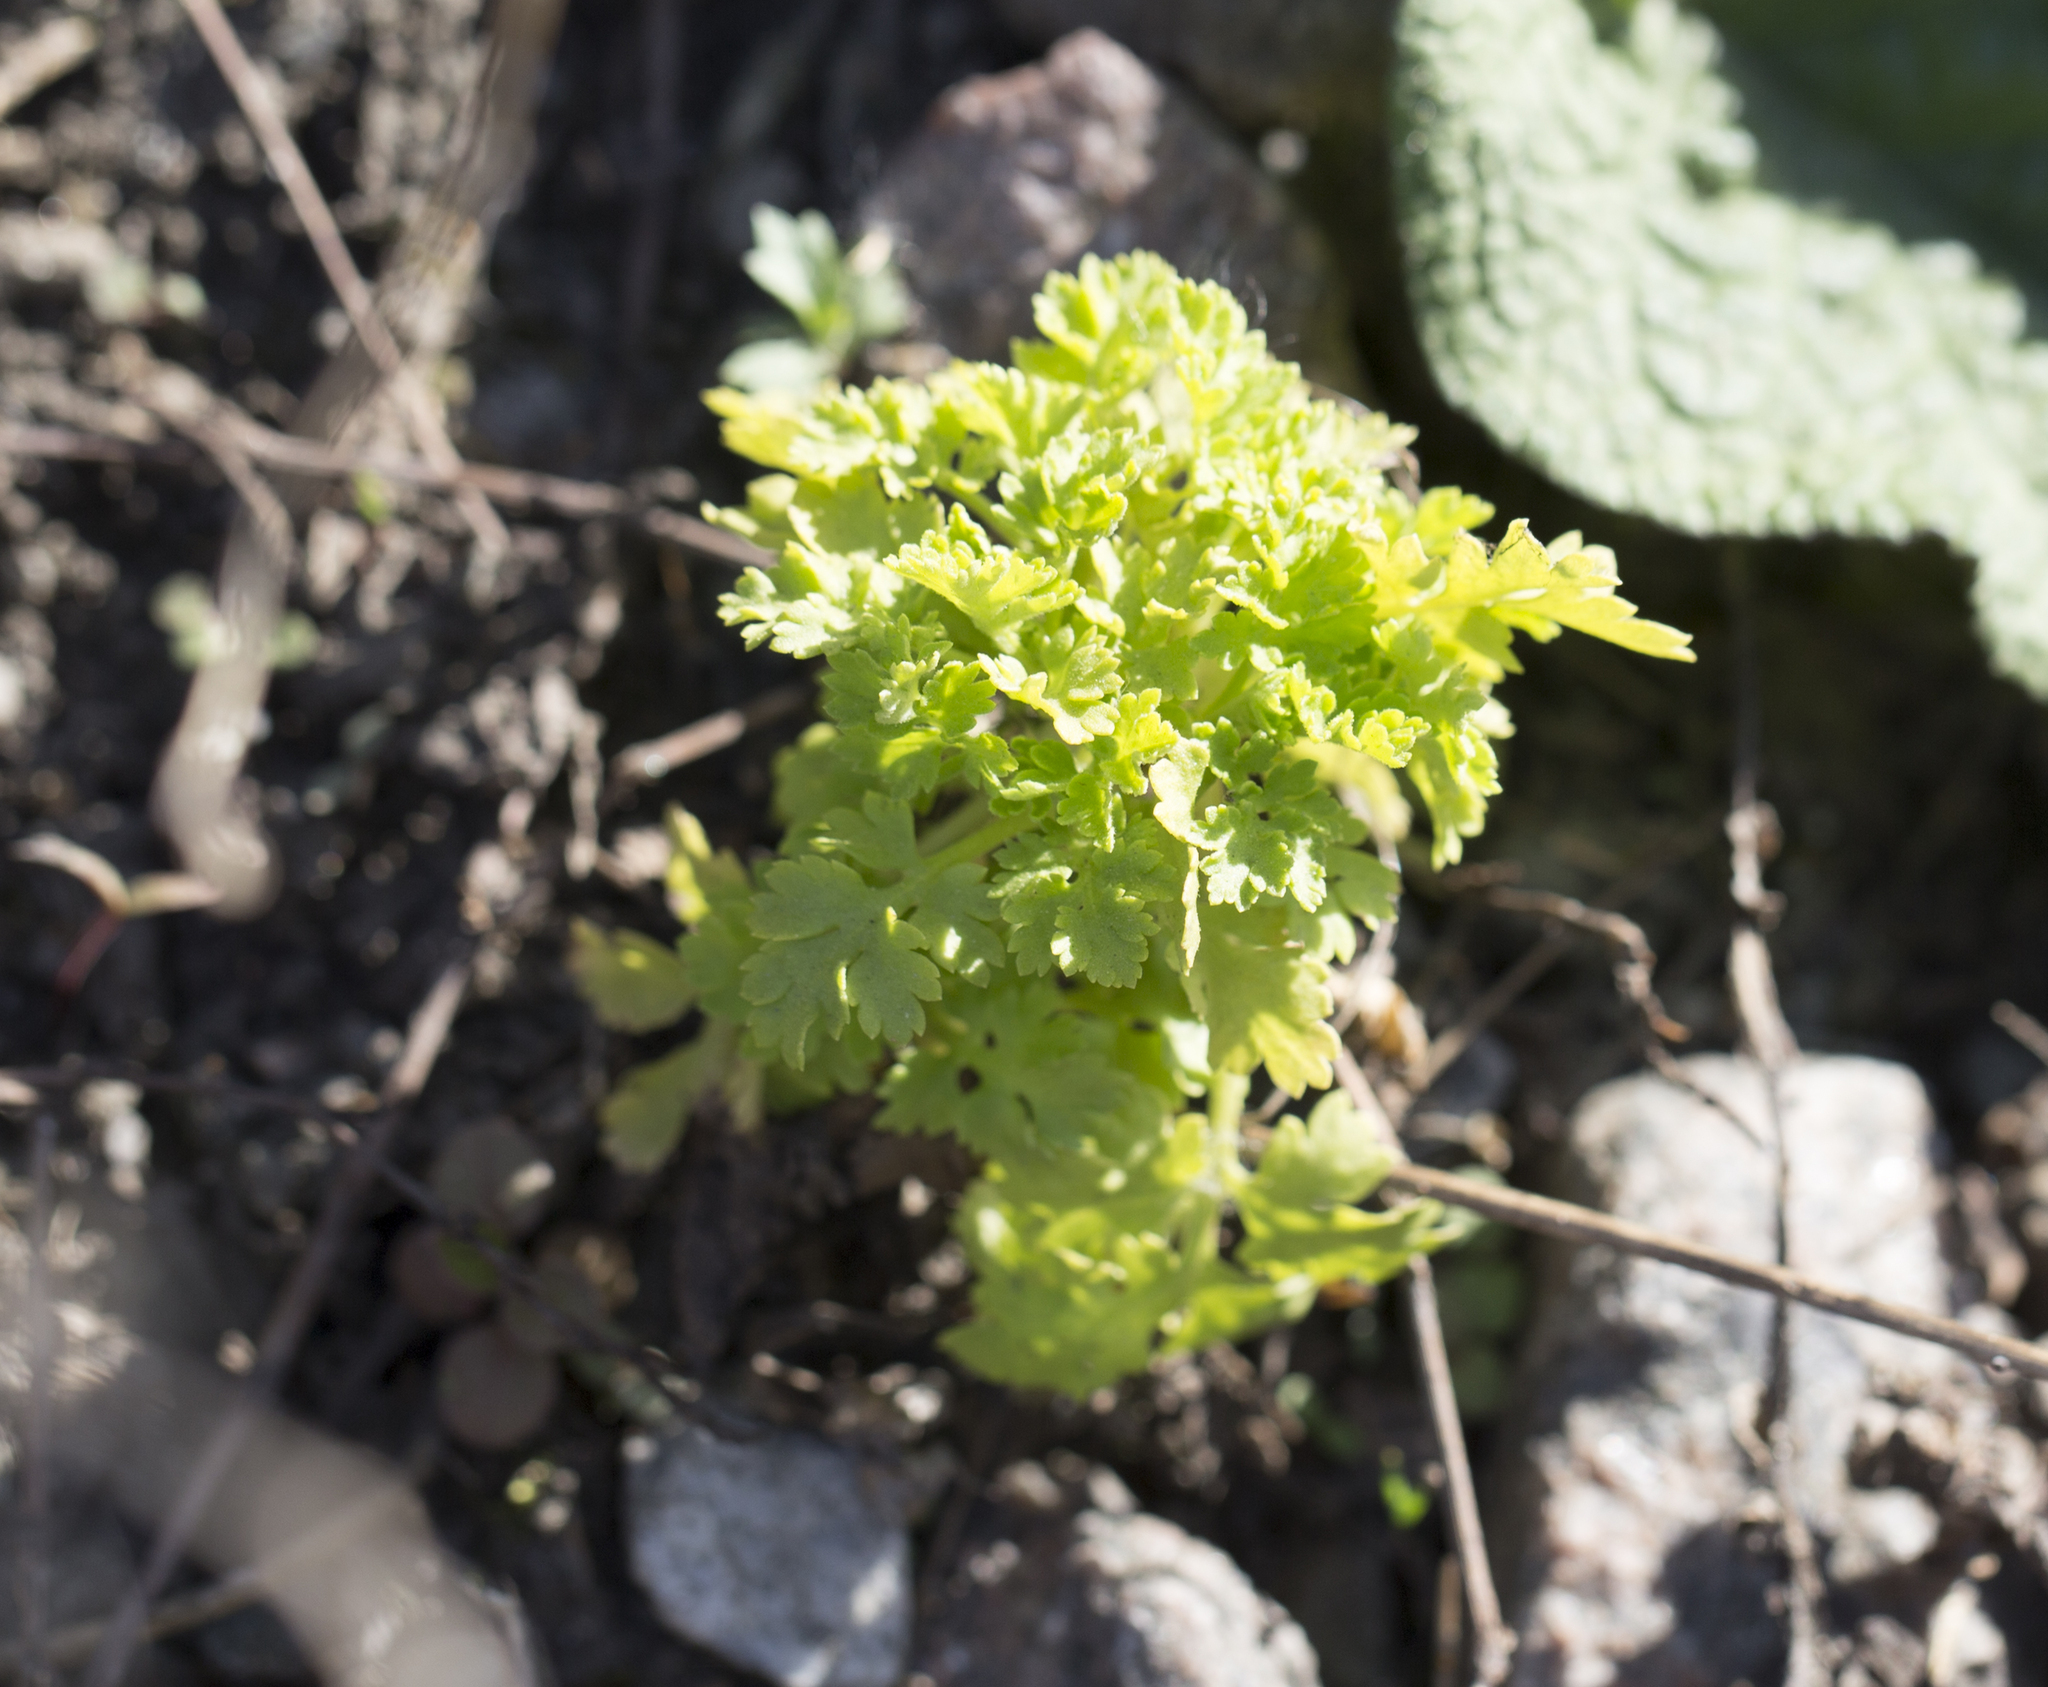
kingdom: Plantae
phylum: Tracheophyta
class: Magnoliopsida
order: Asterales
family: Asteraceae
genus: Artemisia
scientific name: Artemisia vulgaris
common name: Mugwort
